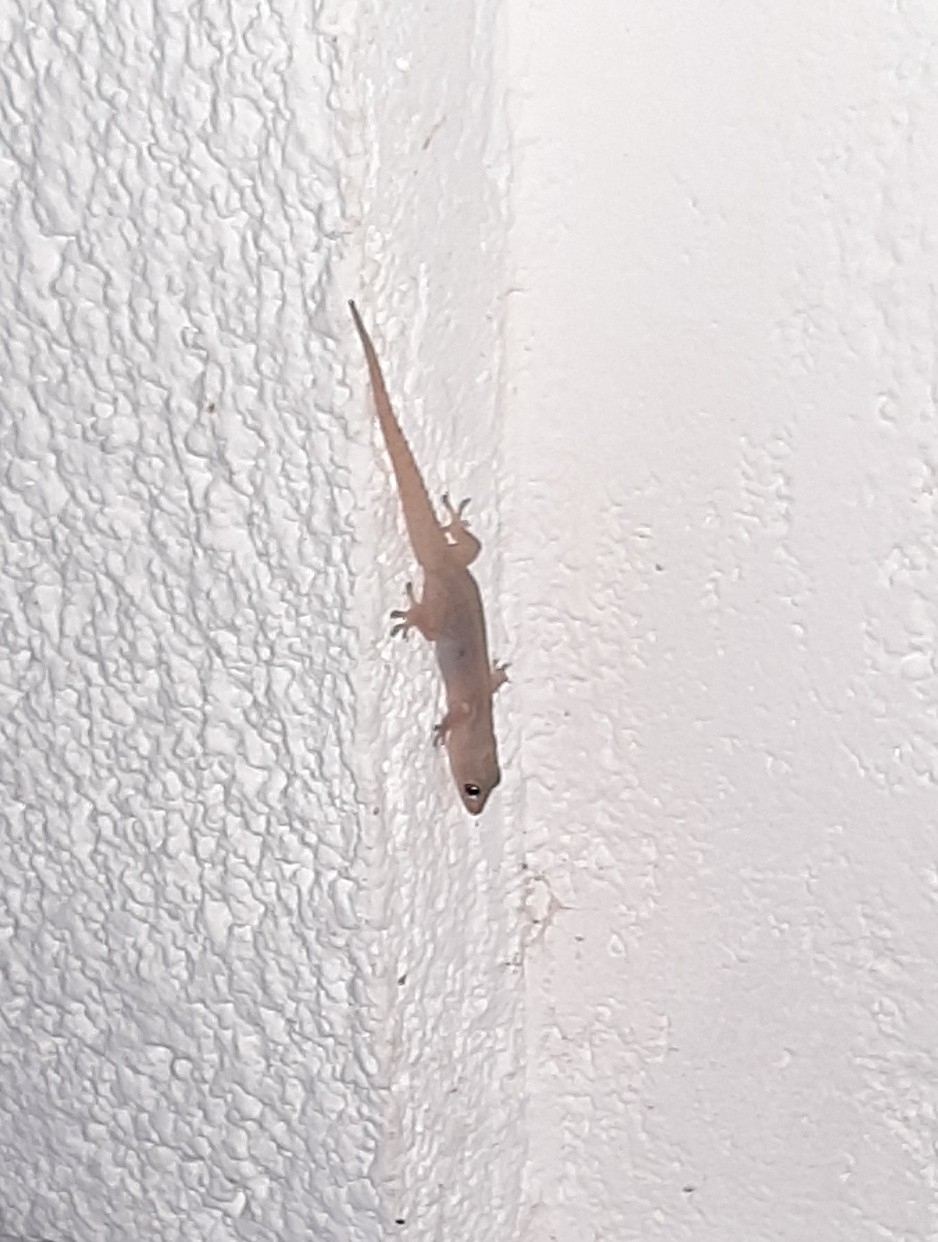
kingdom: Animalia
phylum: Chordata
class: Squamata
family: Gekkonidae
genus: Hemidactylus
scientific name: Hemidactylus frenatus
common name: Common house gecko
